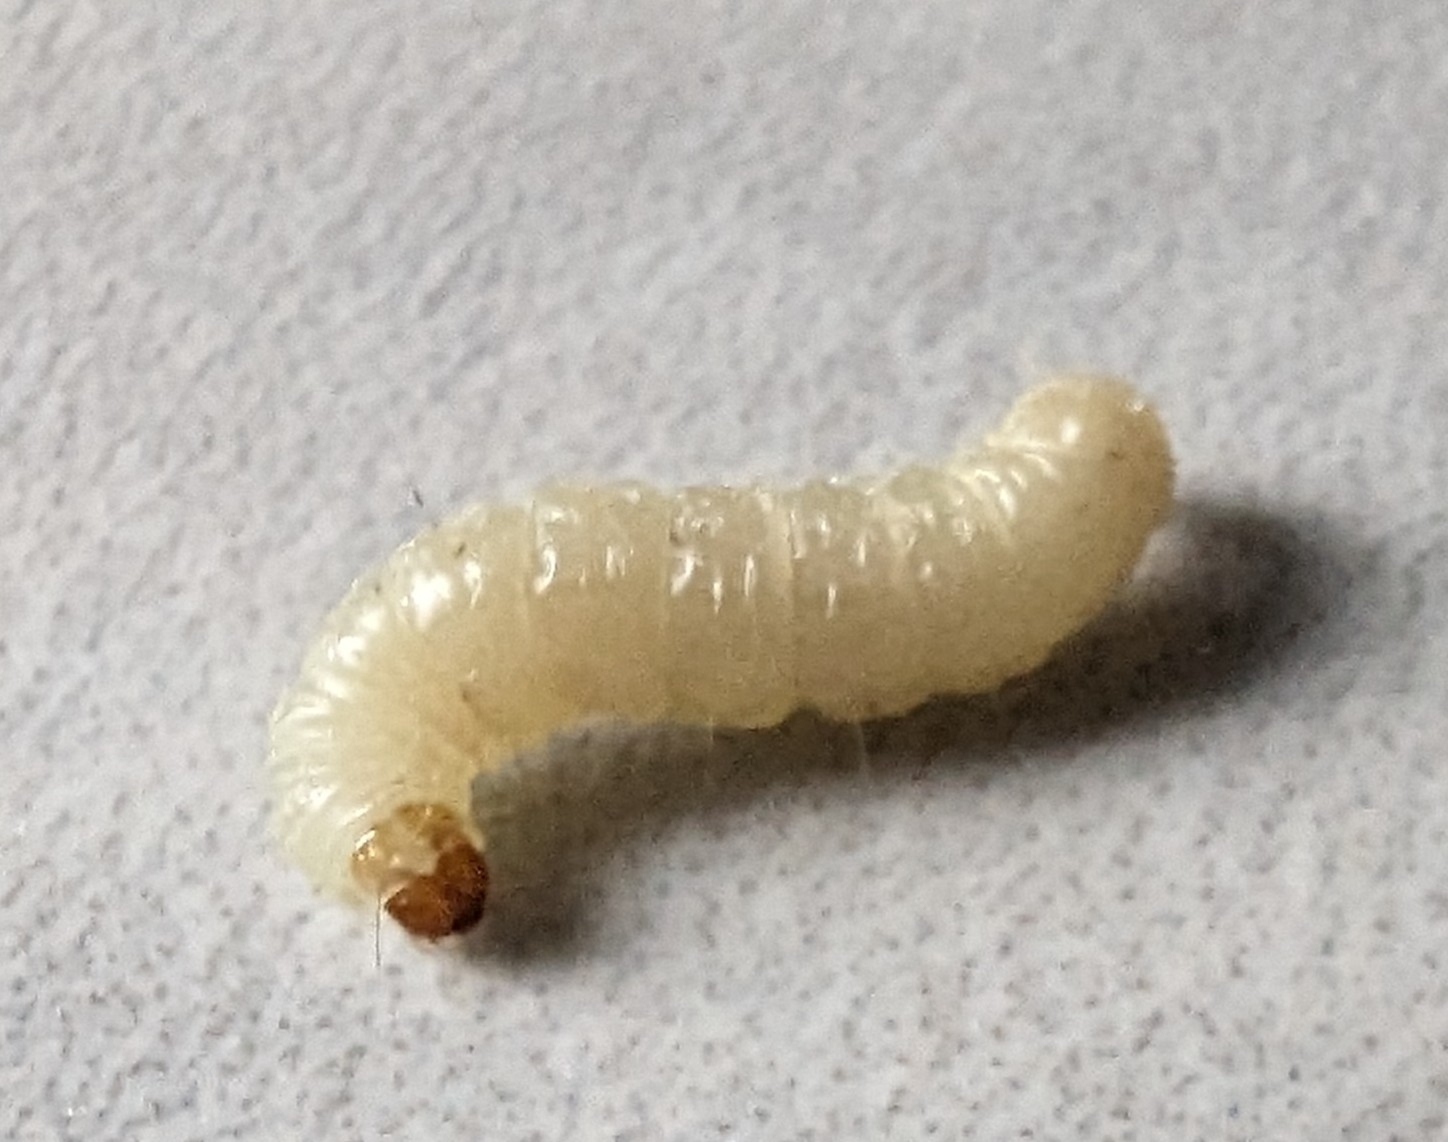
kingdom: Animalia
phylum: Arthropoda
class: Insecta
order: Lepidoptera
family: Pyralidae
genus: Plodia
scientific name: Plodia interpunctella
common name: Indian meal moth
